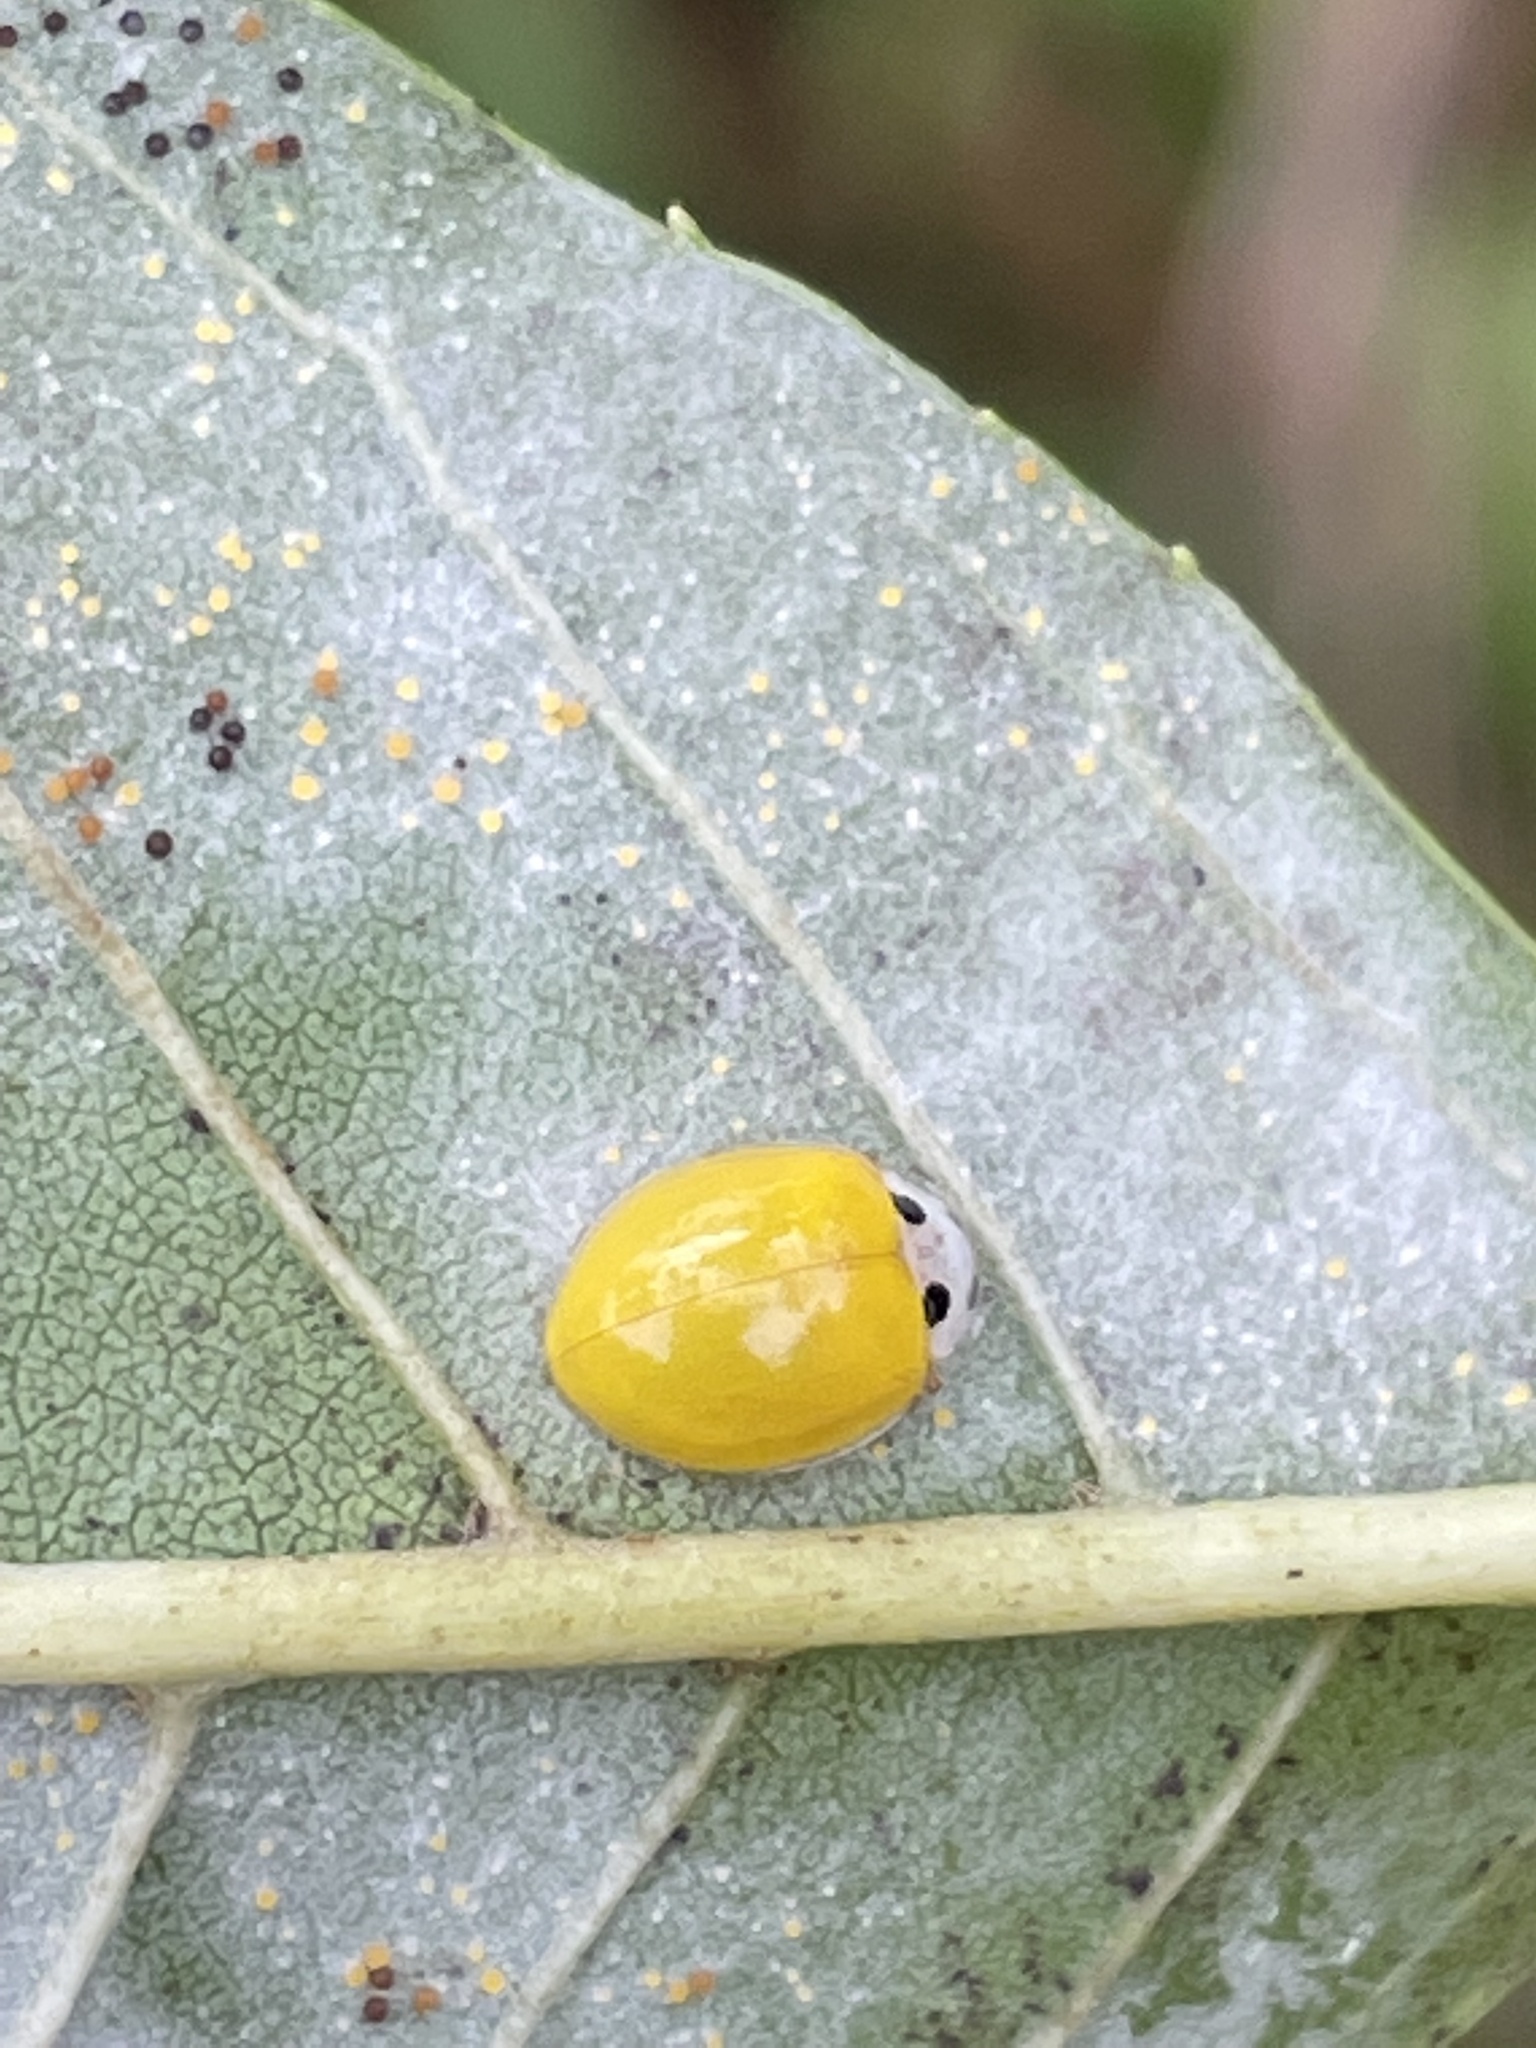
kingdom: Animalia
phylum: Arthropoda
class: Insecta
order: Coleoptera
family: Coccinellidae
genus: Illeis
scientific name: Illeis koebelei
